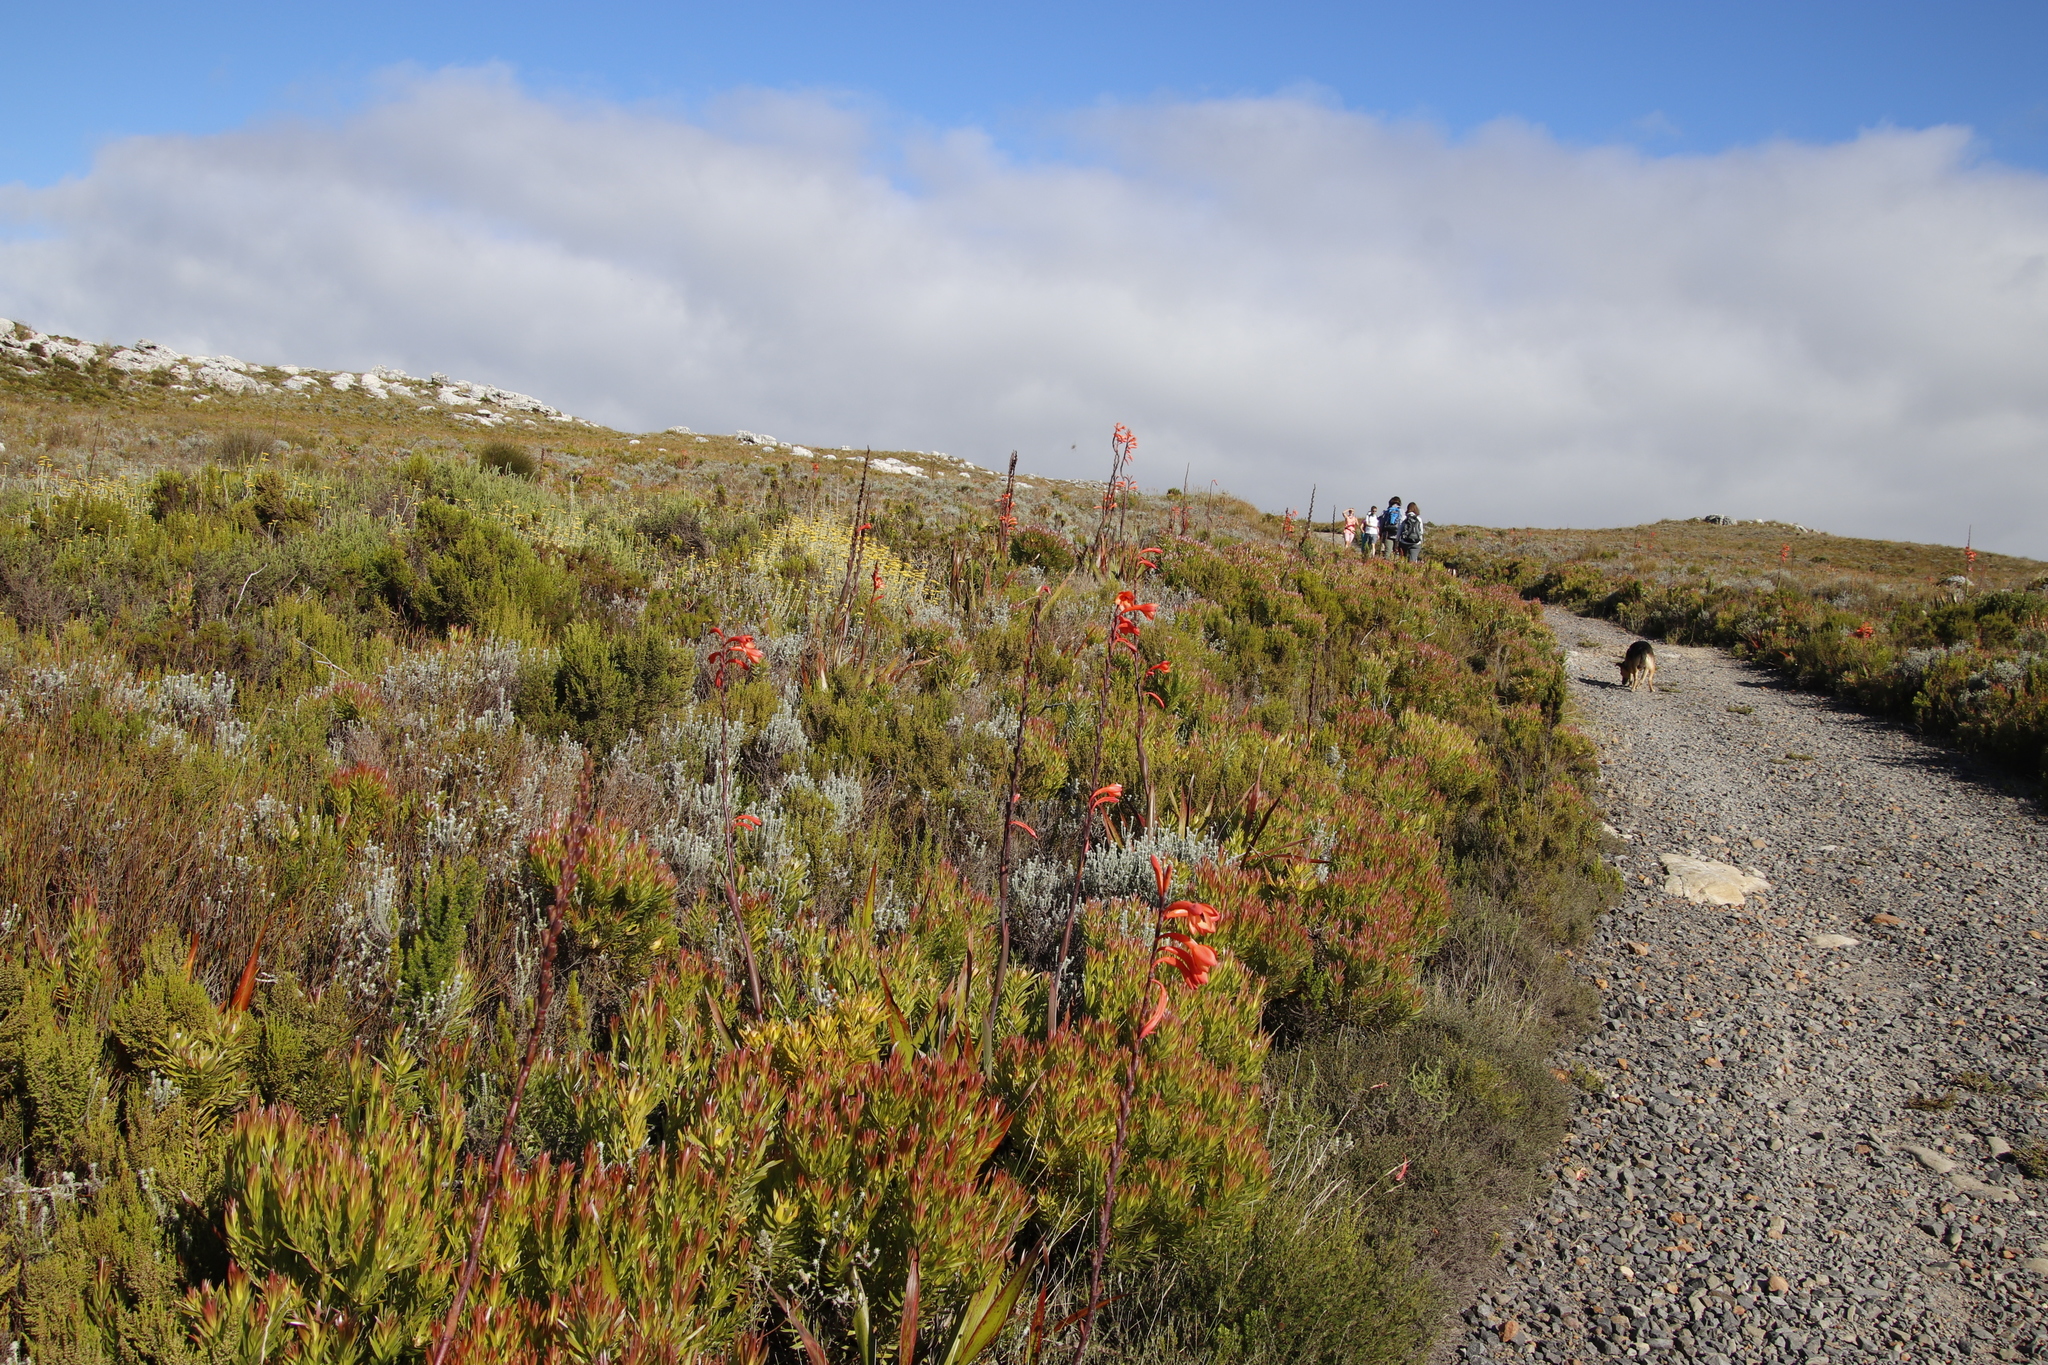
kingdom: Plantae
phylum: Tracheophyta
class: Magnoliopsida
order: Proteales
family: Proteaceae
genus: Leucadendron
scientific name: Leucadendron xanthoconus
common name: Sickle-leaf conebush
